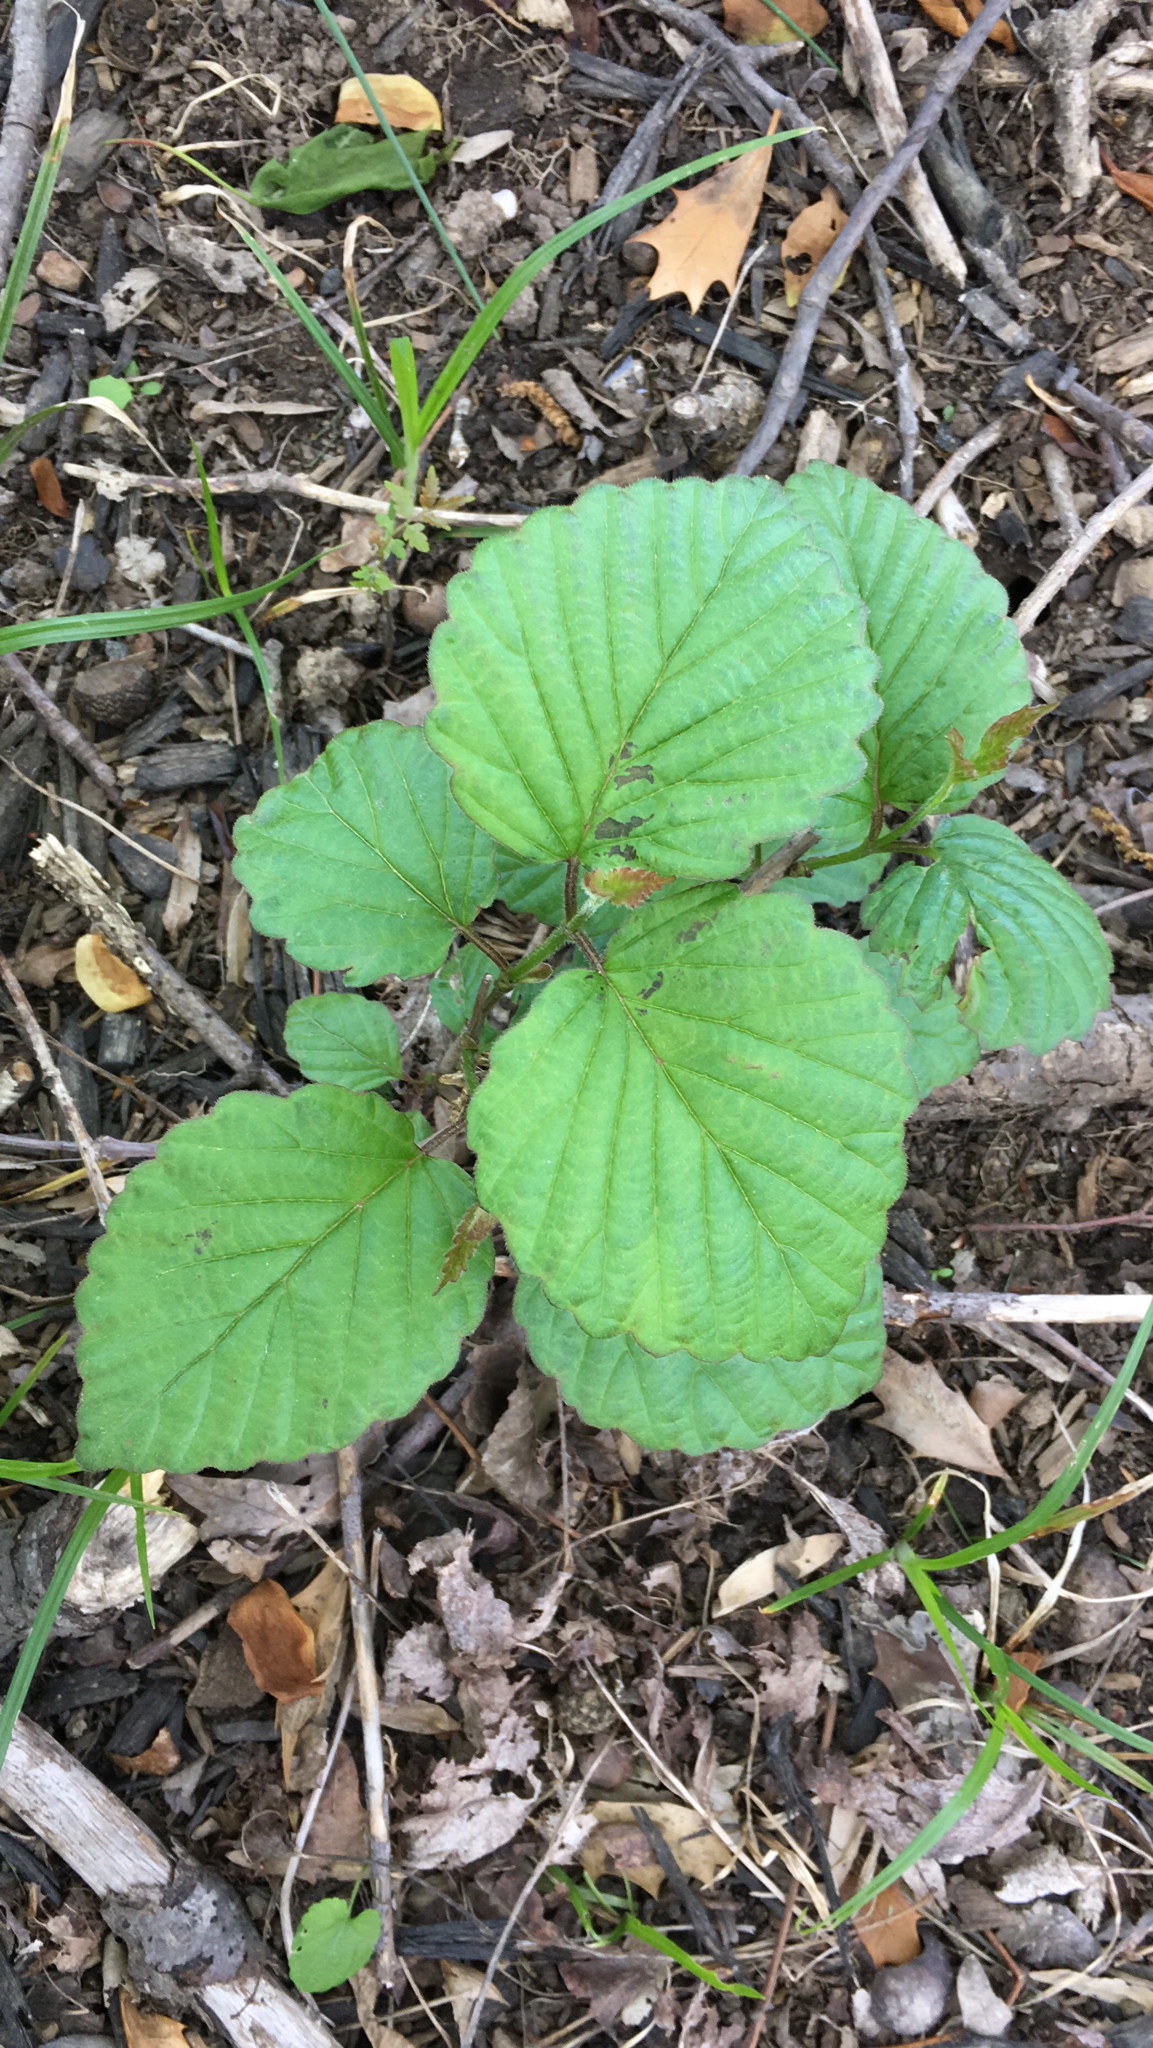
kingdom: Plantae
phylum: Tracheophyta
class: Magnoliopsida
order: Dipsacales
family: Viburnaceae
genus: Viburnum
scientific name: Viburnum dentatum
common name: Arrow-wood
